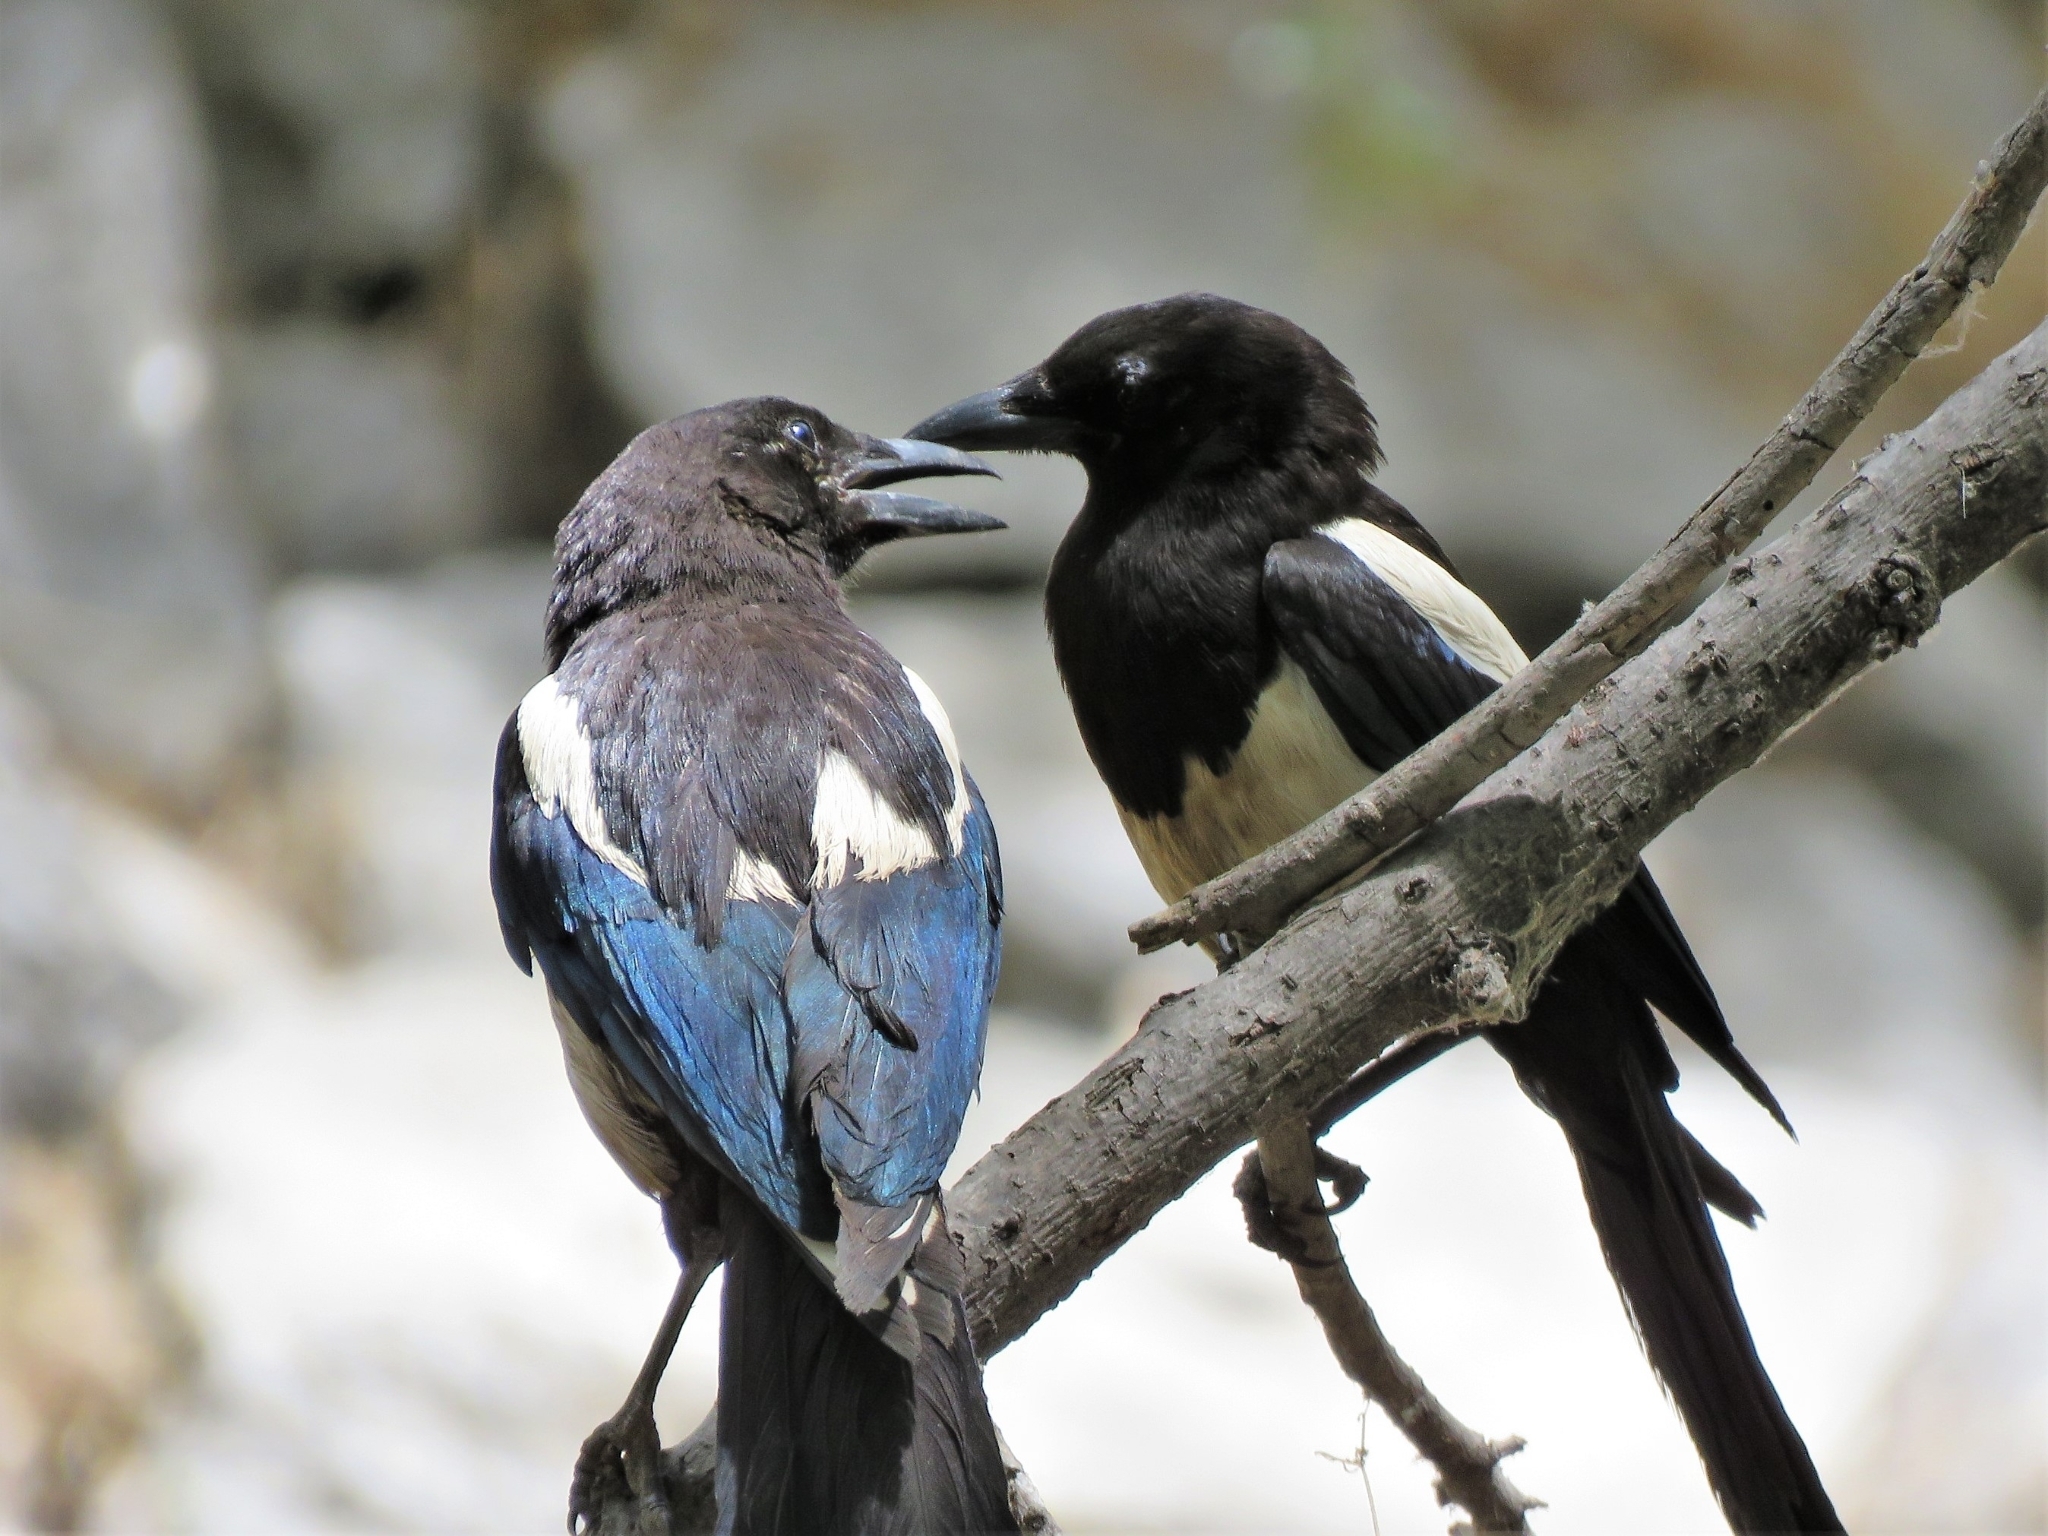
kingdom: Animalia
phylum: Chordata
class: Aves
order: Passeriformes
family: Corvidae
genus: Pica
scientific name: Pica pica
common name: Eurasian magpie
